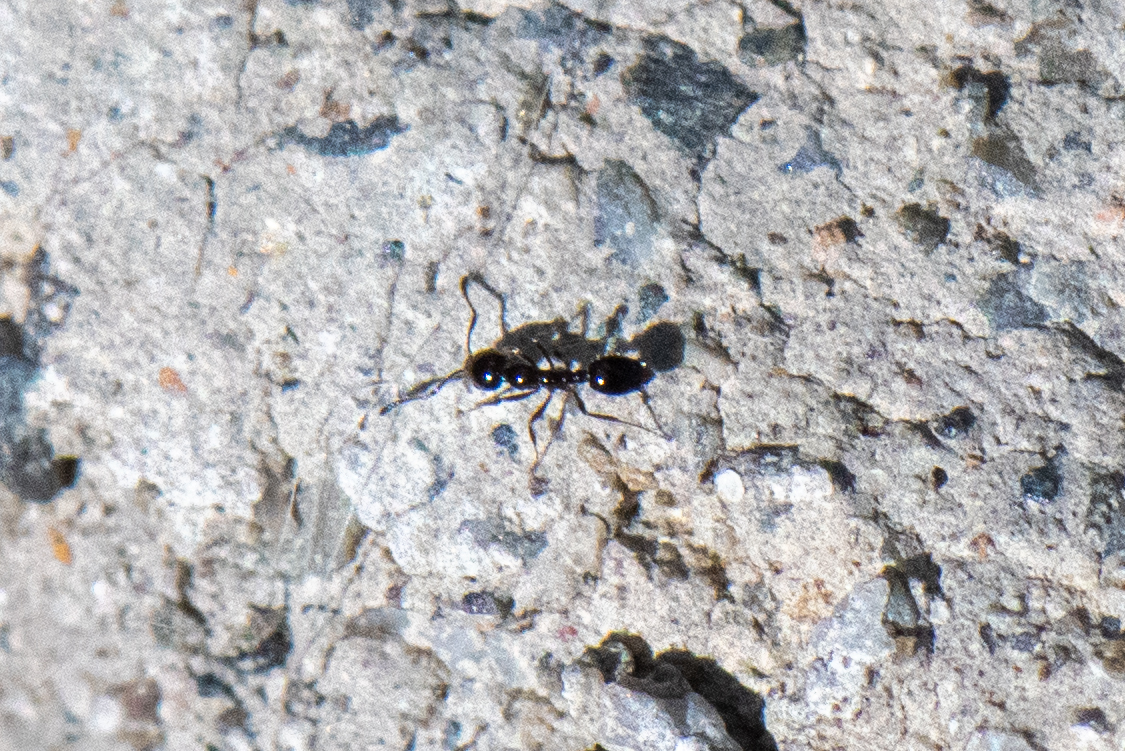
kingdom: Animalia
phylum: Arthropoda
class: Insecta
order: Hymenoptera
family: Formicidae
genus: Monomorium
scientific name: Monomorium ergatogyna
